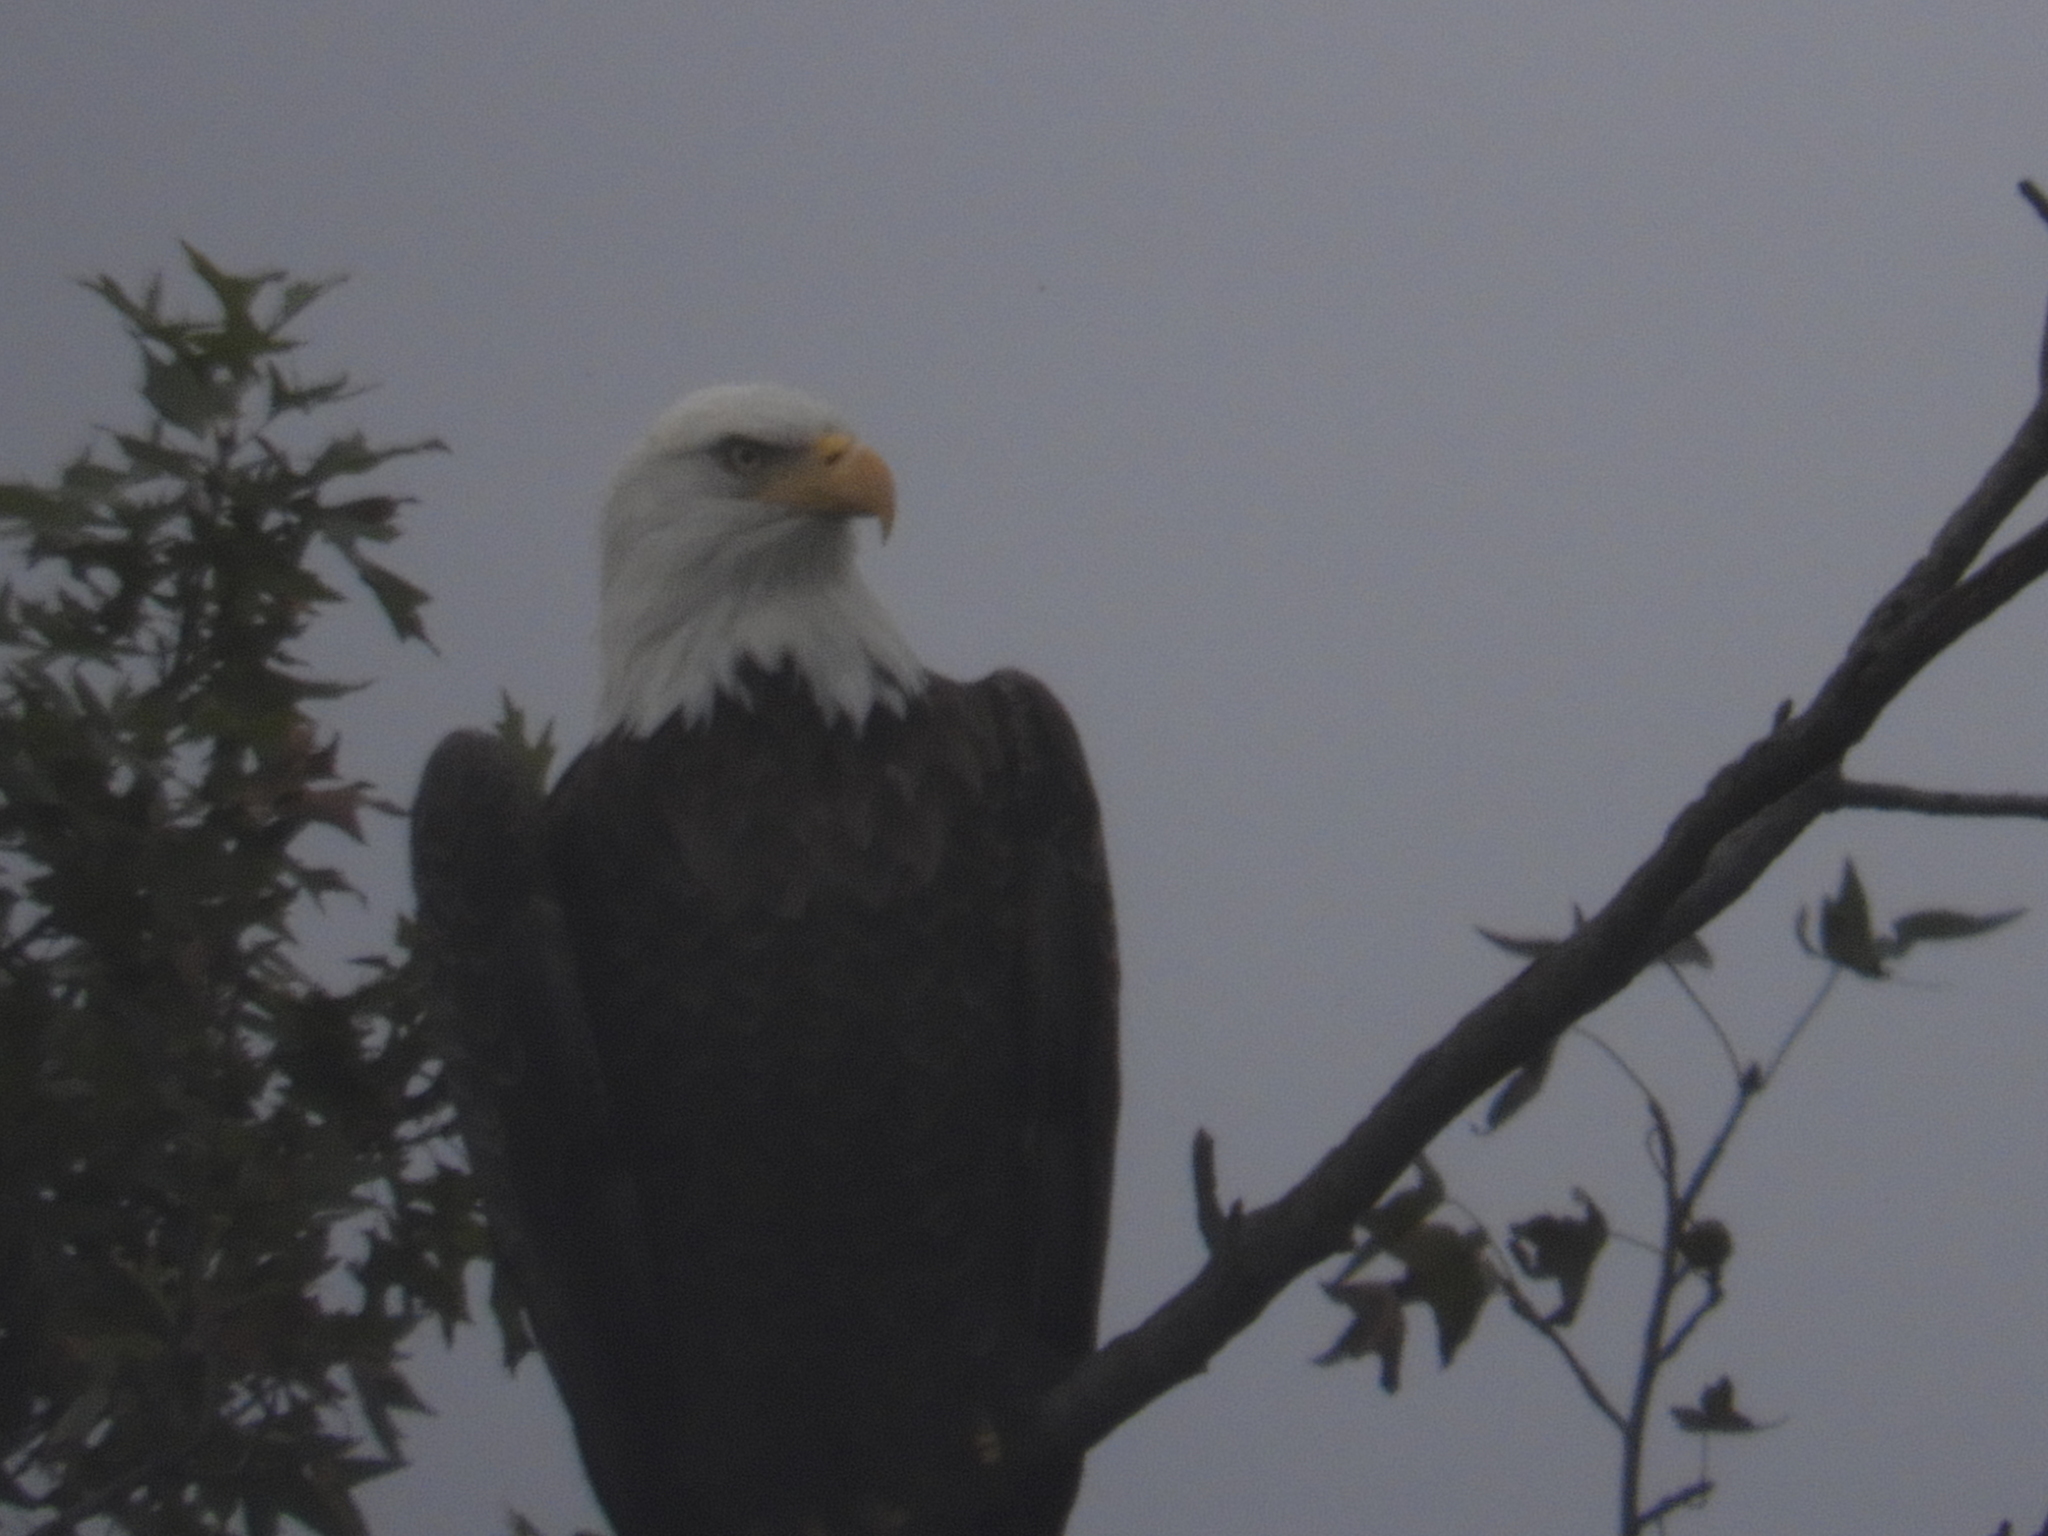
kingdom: Animalia
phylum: Chordata
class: Aves
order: Accipitriformes
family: Accipitridae
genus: Haliaeetus
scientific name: Haliaeetus leucocephalus
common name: Bald eagle
